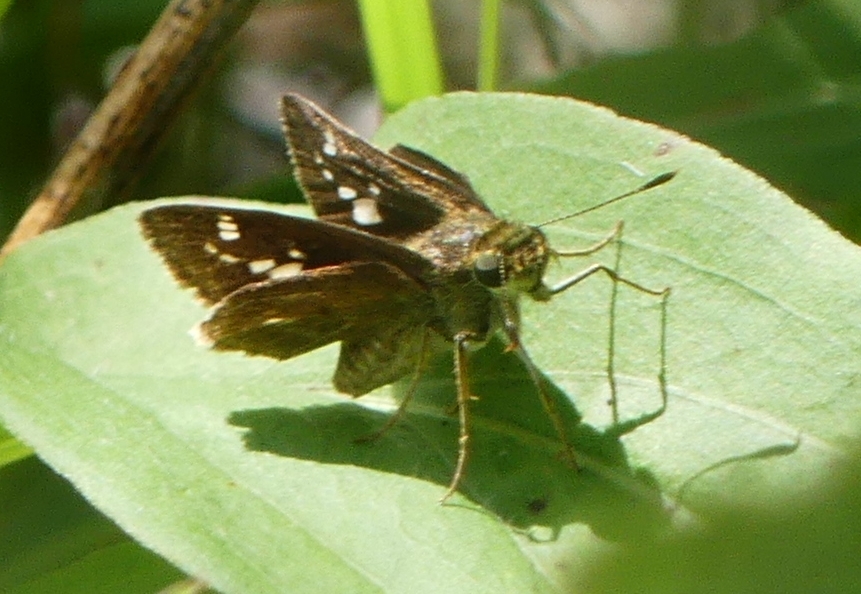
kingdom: Animalia
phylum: Arthropoda
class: Insecta
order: Lepidoptera
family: Hesperiidae
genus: Vernia
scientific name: Vernia verna
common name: Little glassywing
